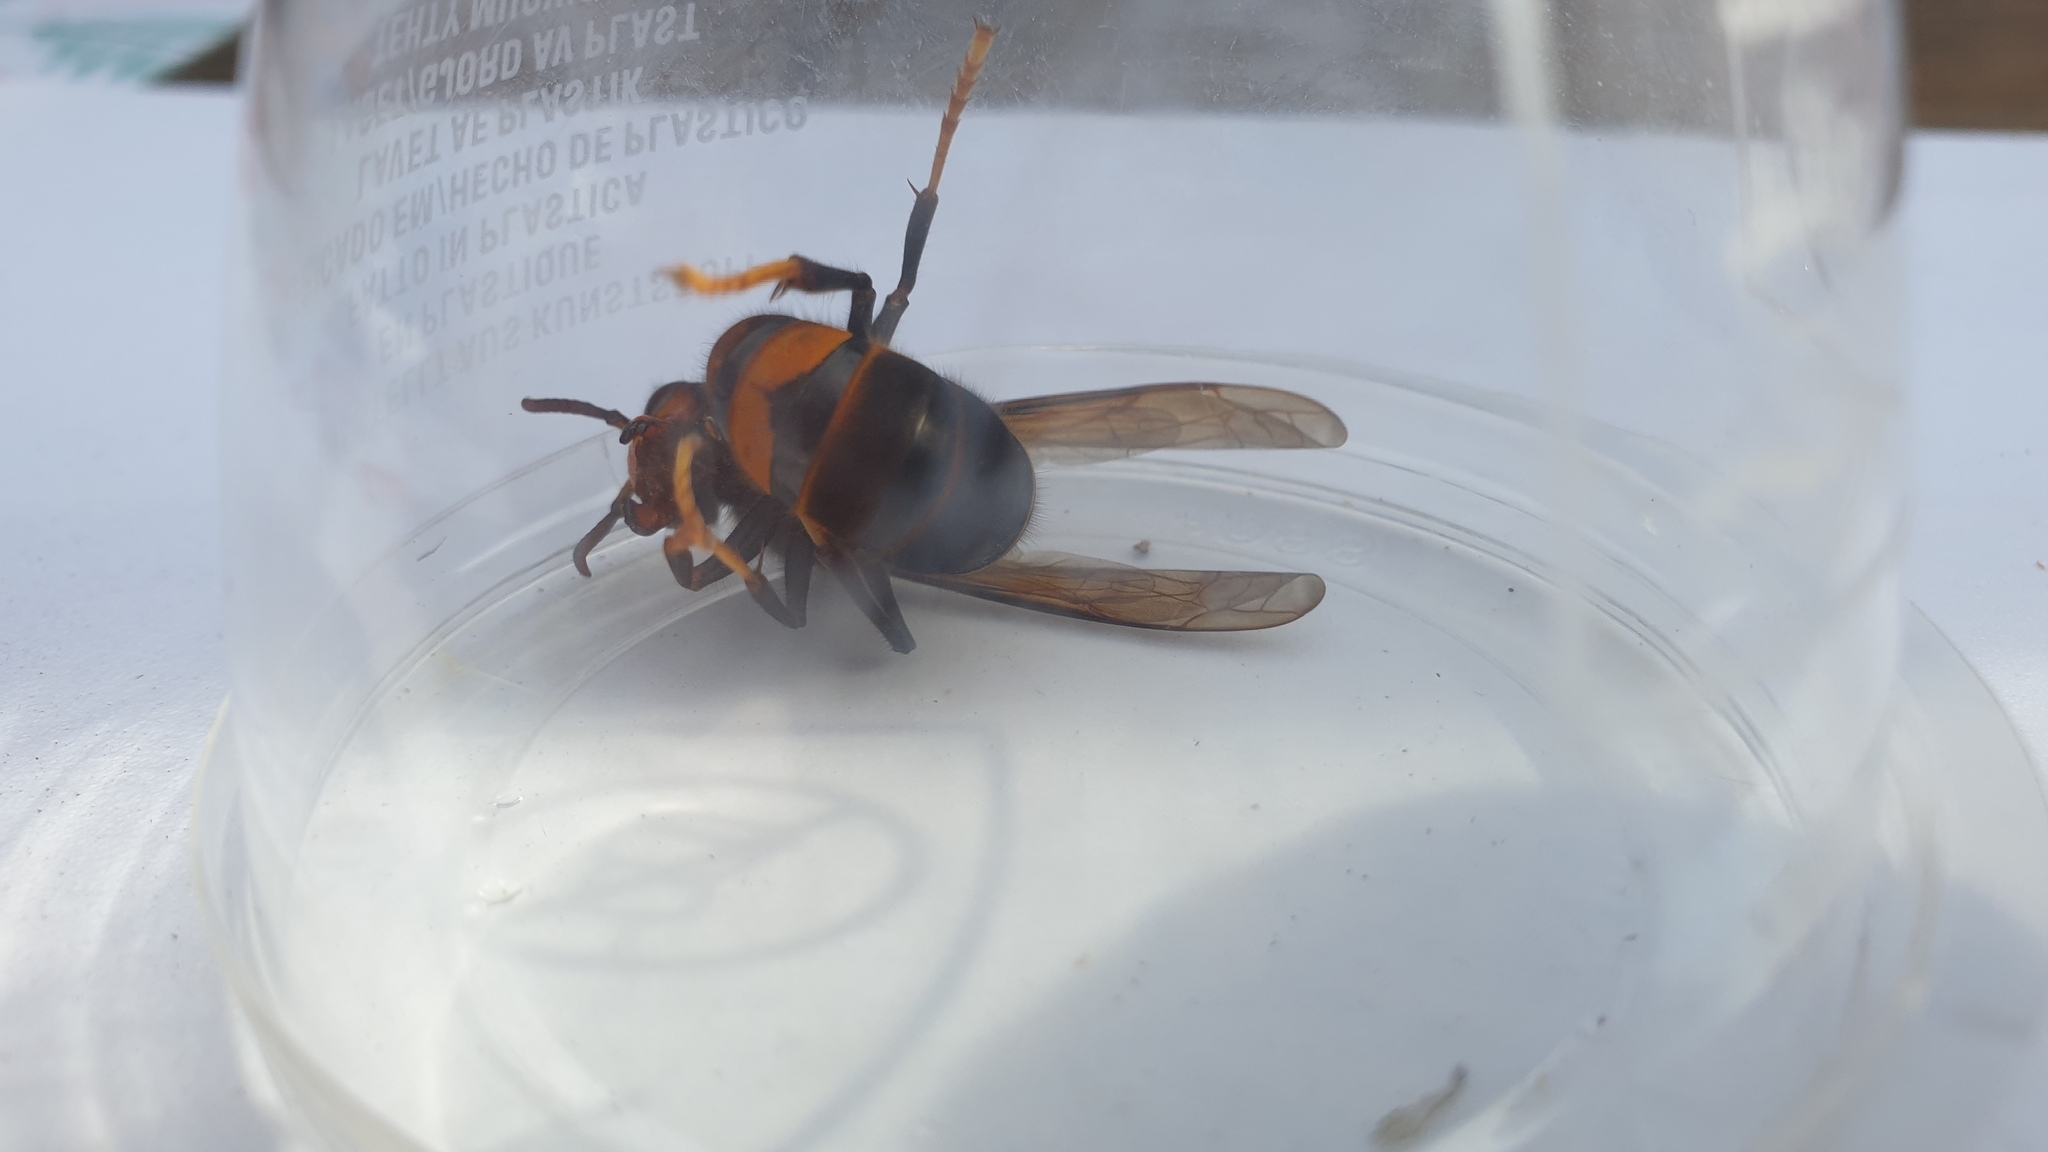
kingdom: Animalia
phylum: Arthropoda
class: Insecta
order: Hymenoptera
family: Vespidae
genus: Vespa
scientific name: Vespa velutina
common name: Asian hornet
